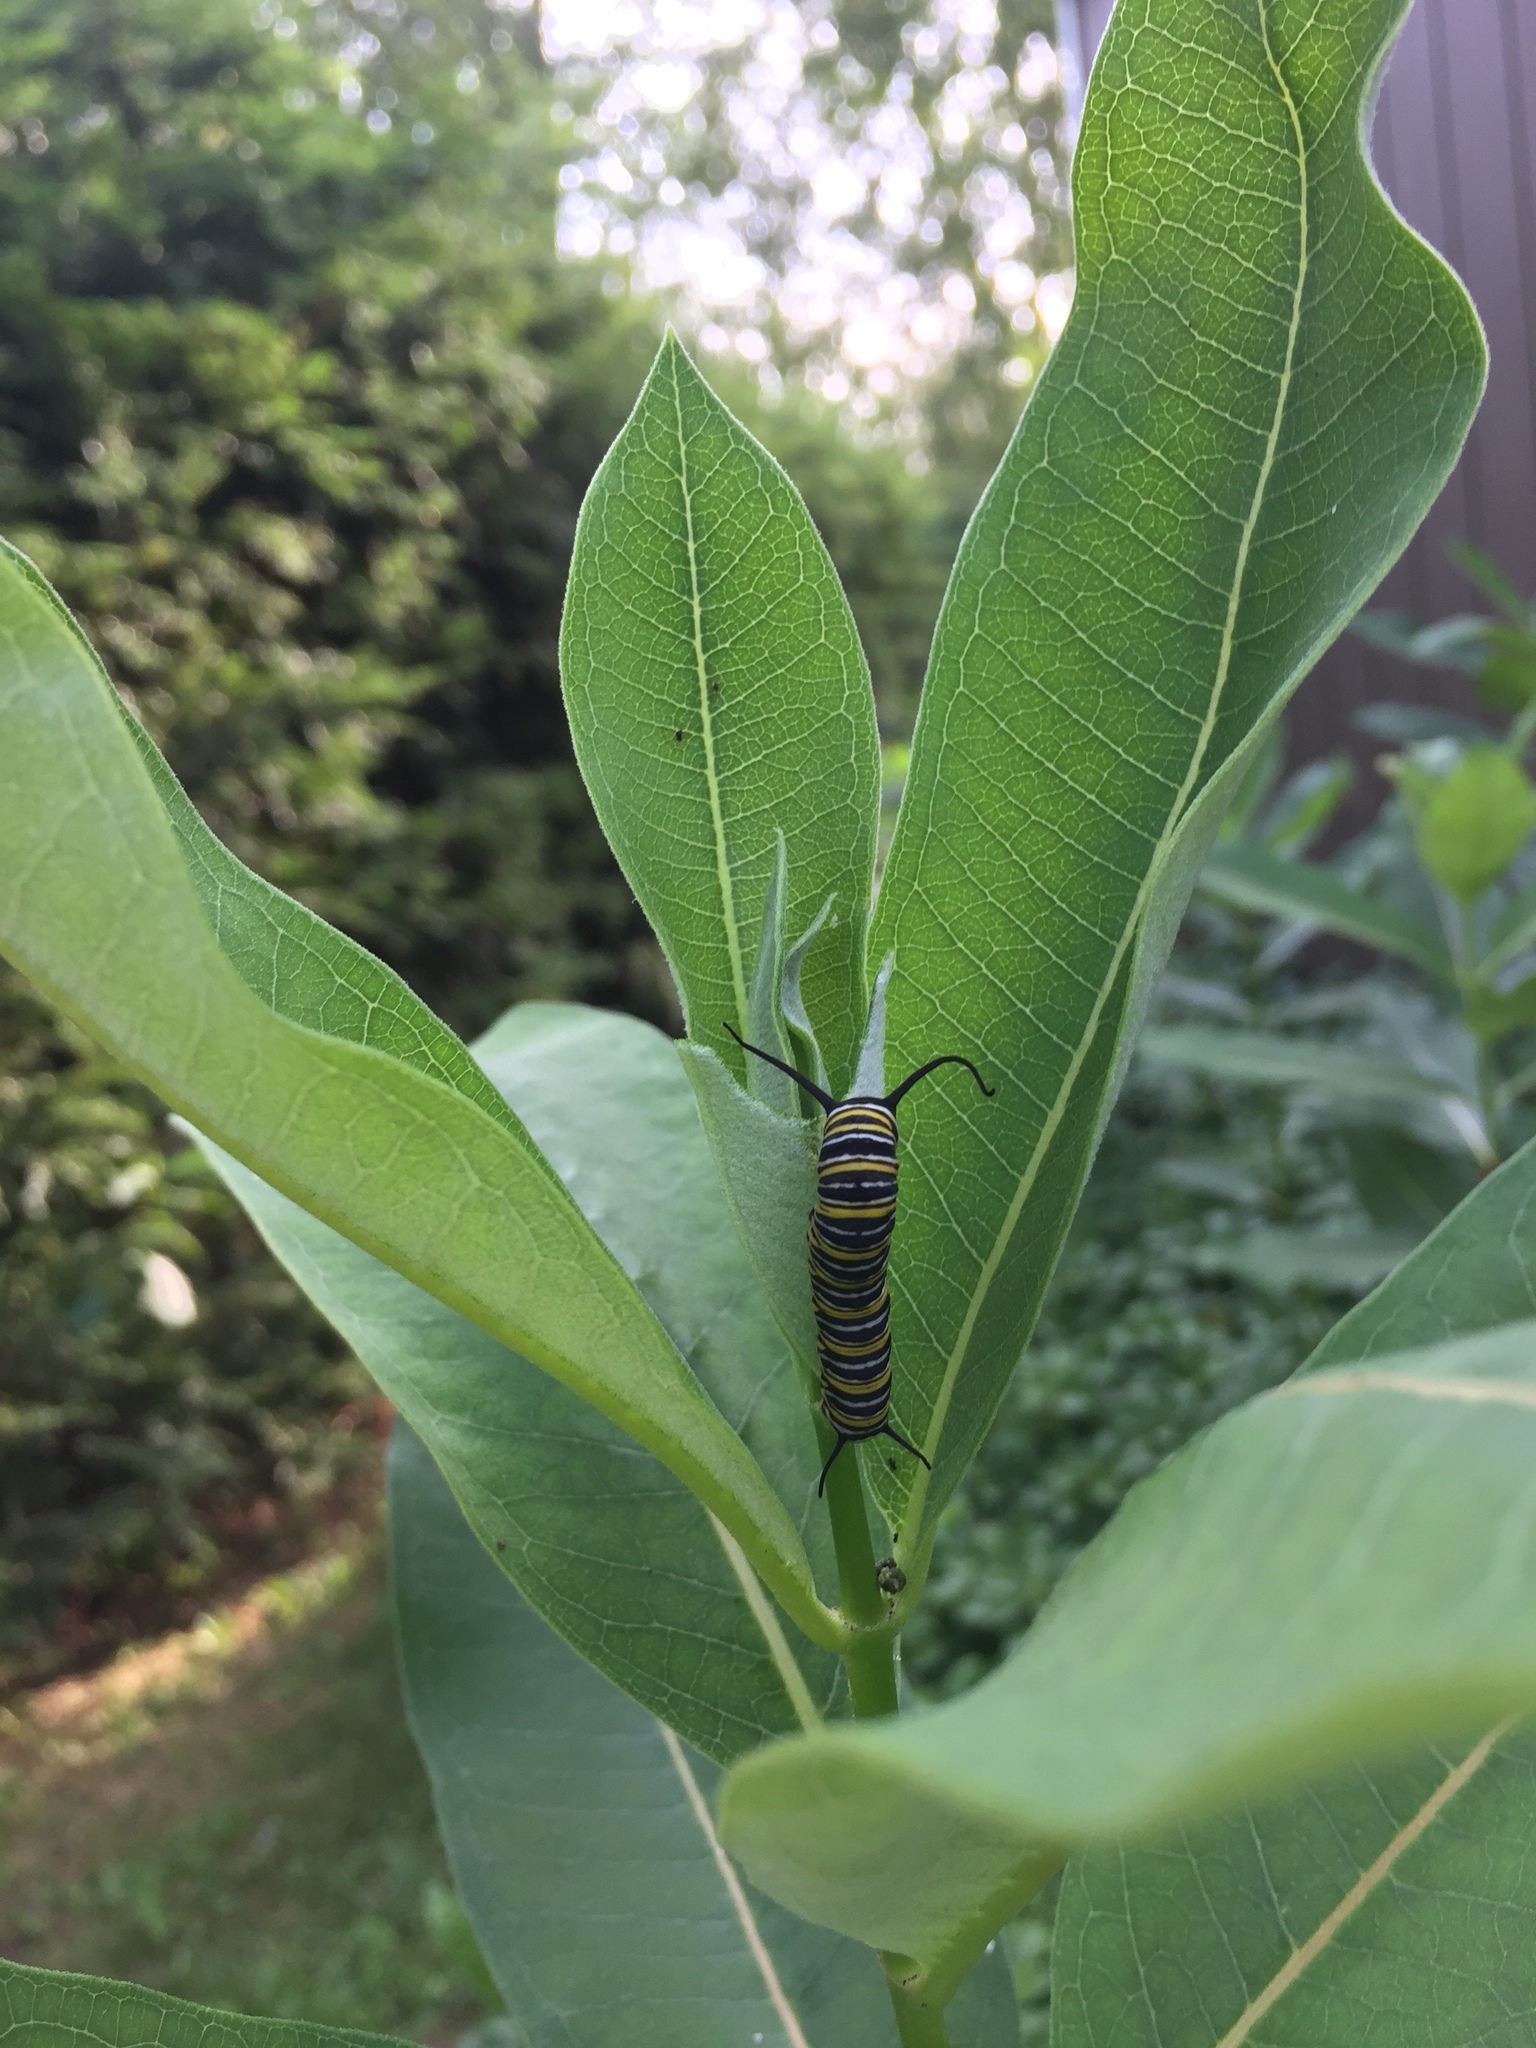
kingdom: Animalia
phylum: Arthropoda
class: Insecta
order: Lepidoptera
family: Nymphalidae
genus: Danaus
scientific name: Danaus plexippus
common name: Monarch
